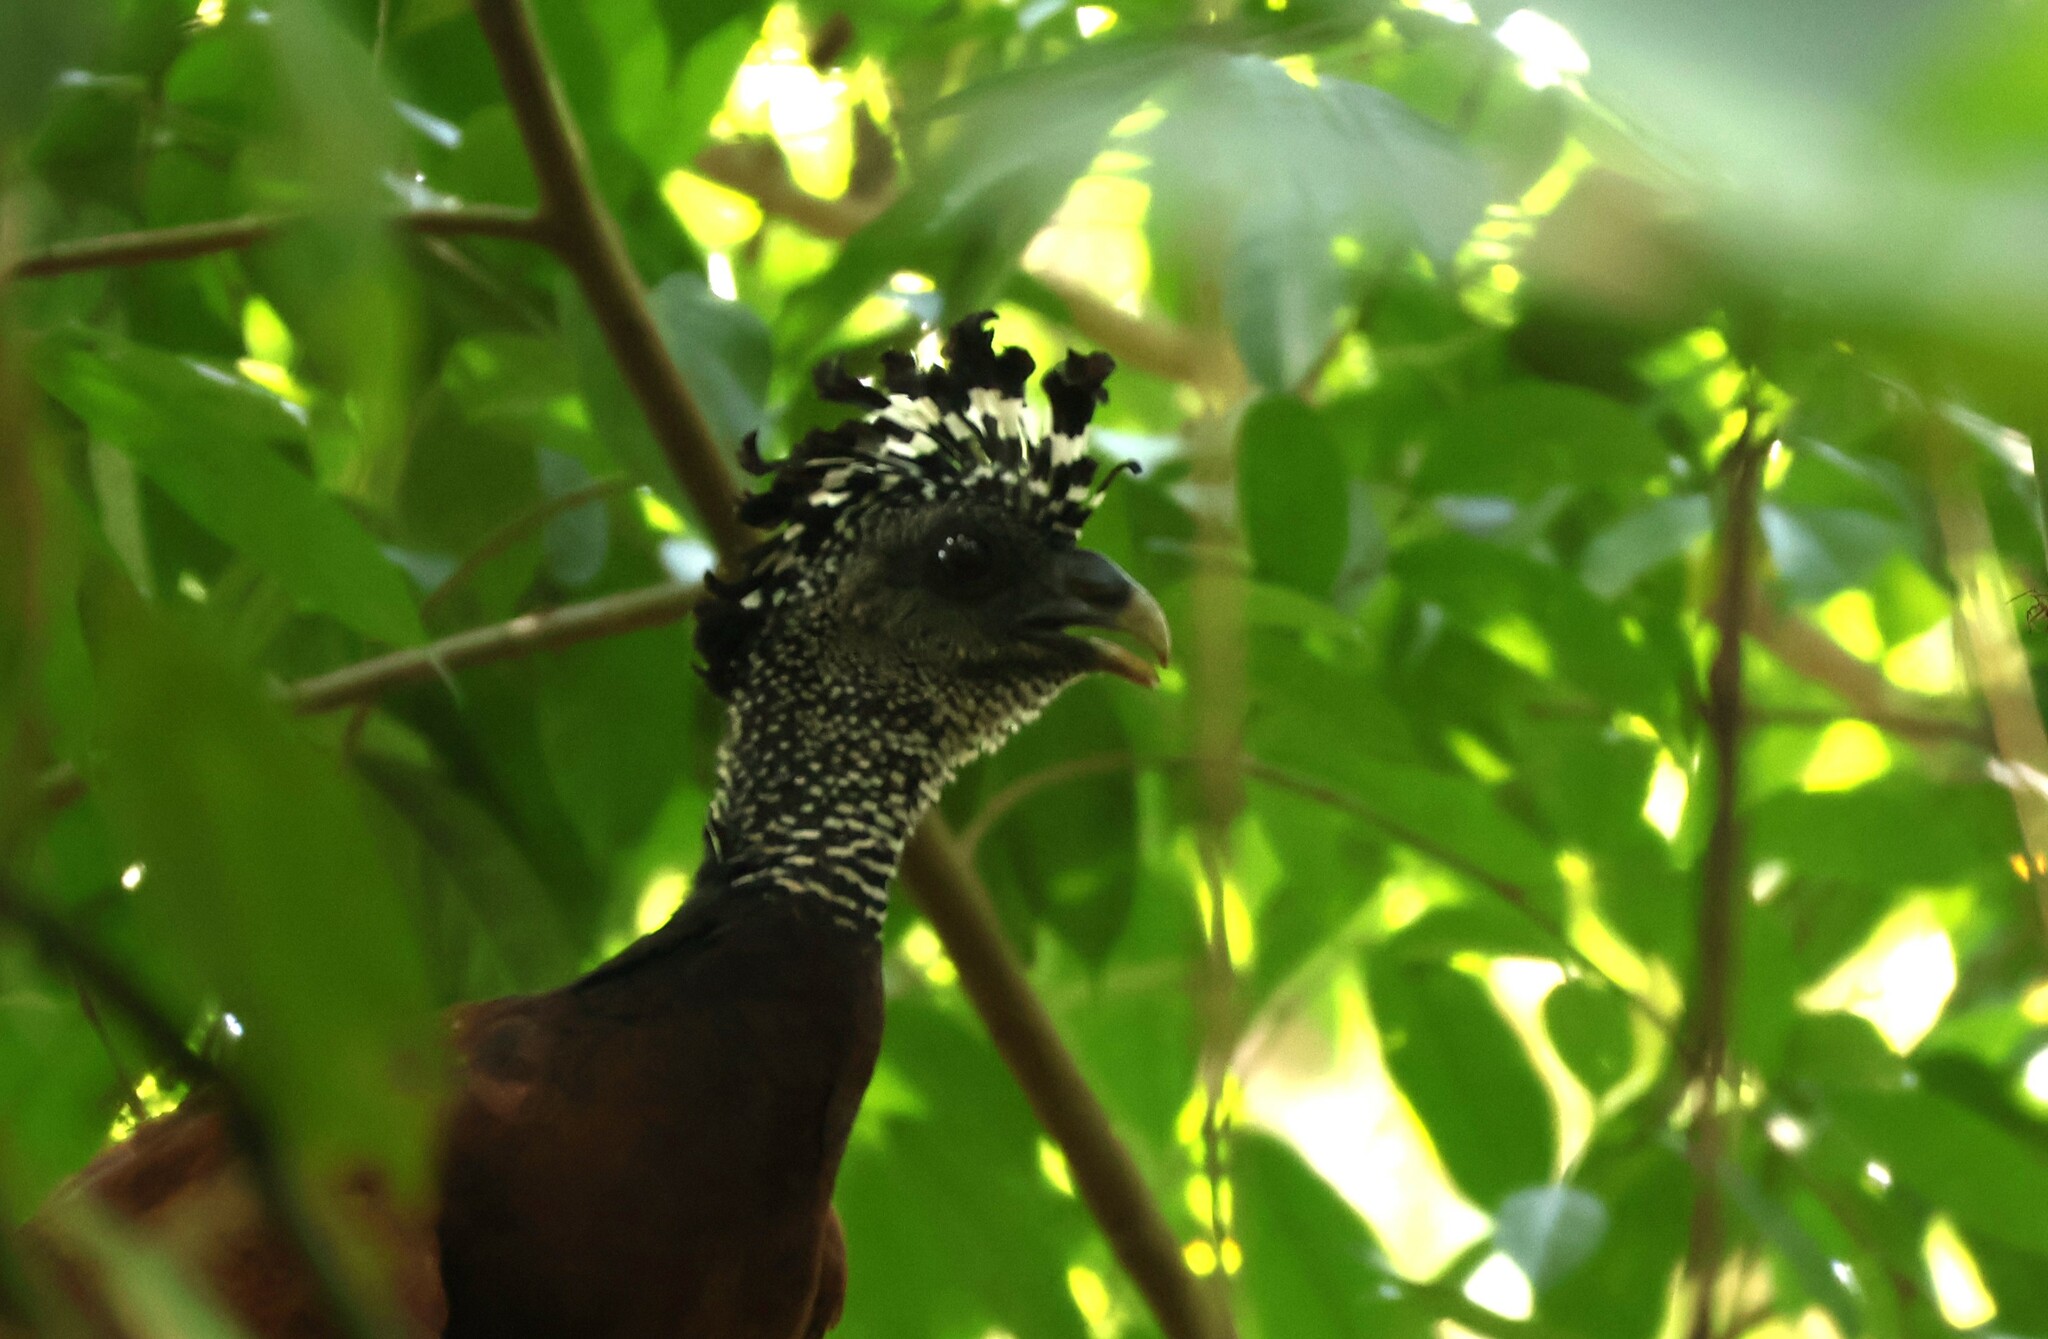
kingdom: Animalia
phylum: Chordata
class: Aves
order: Galliformes
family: Cracidae
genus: Crax
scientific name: Crax rubra
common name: Great curassow
